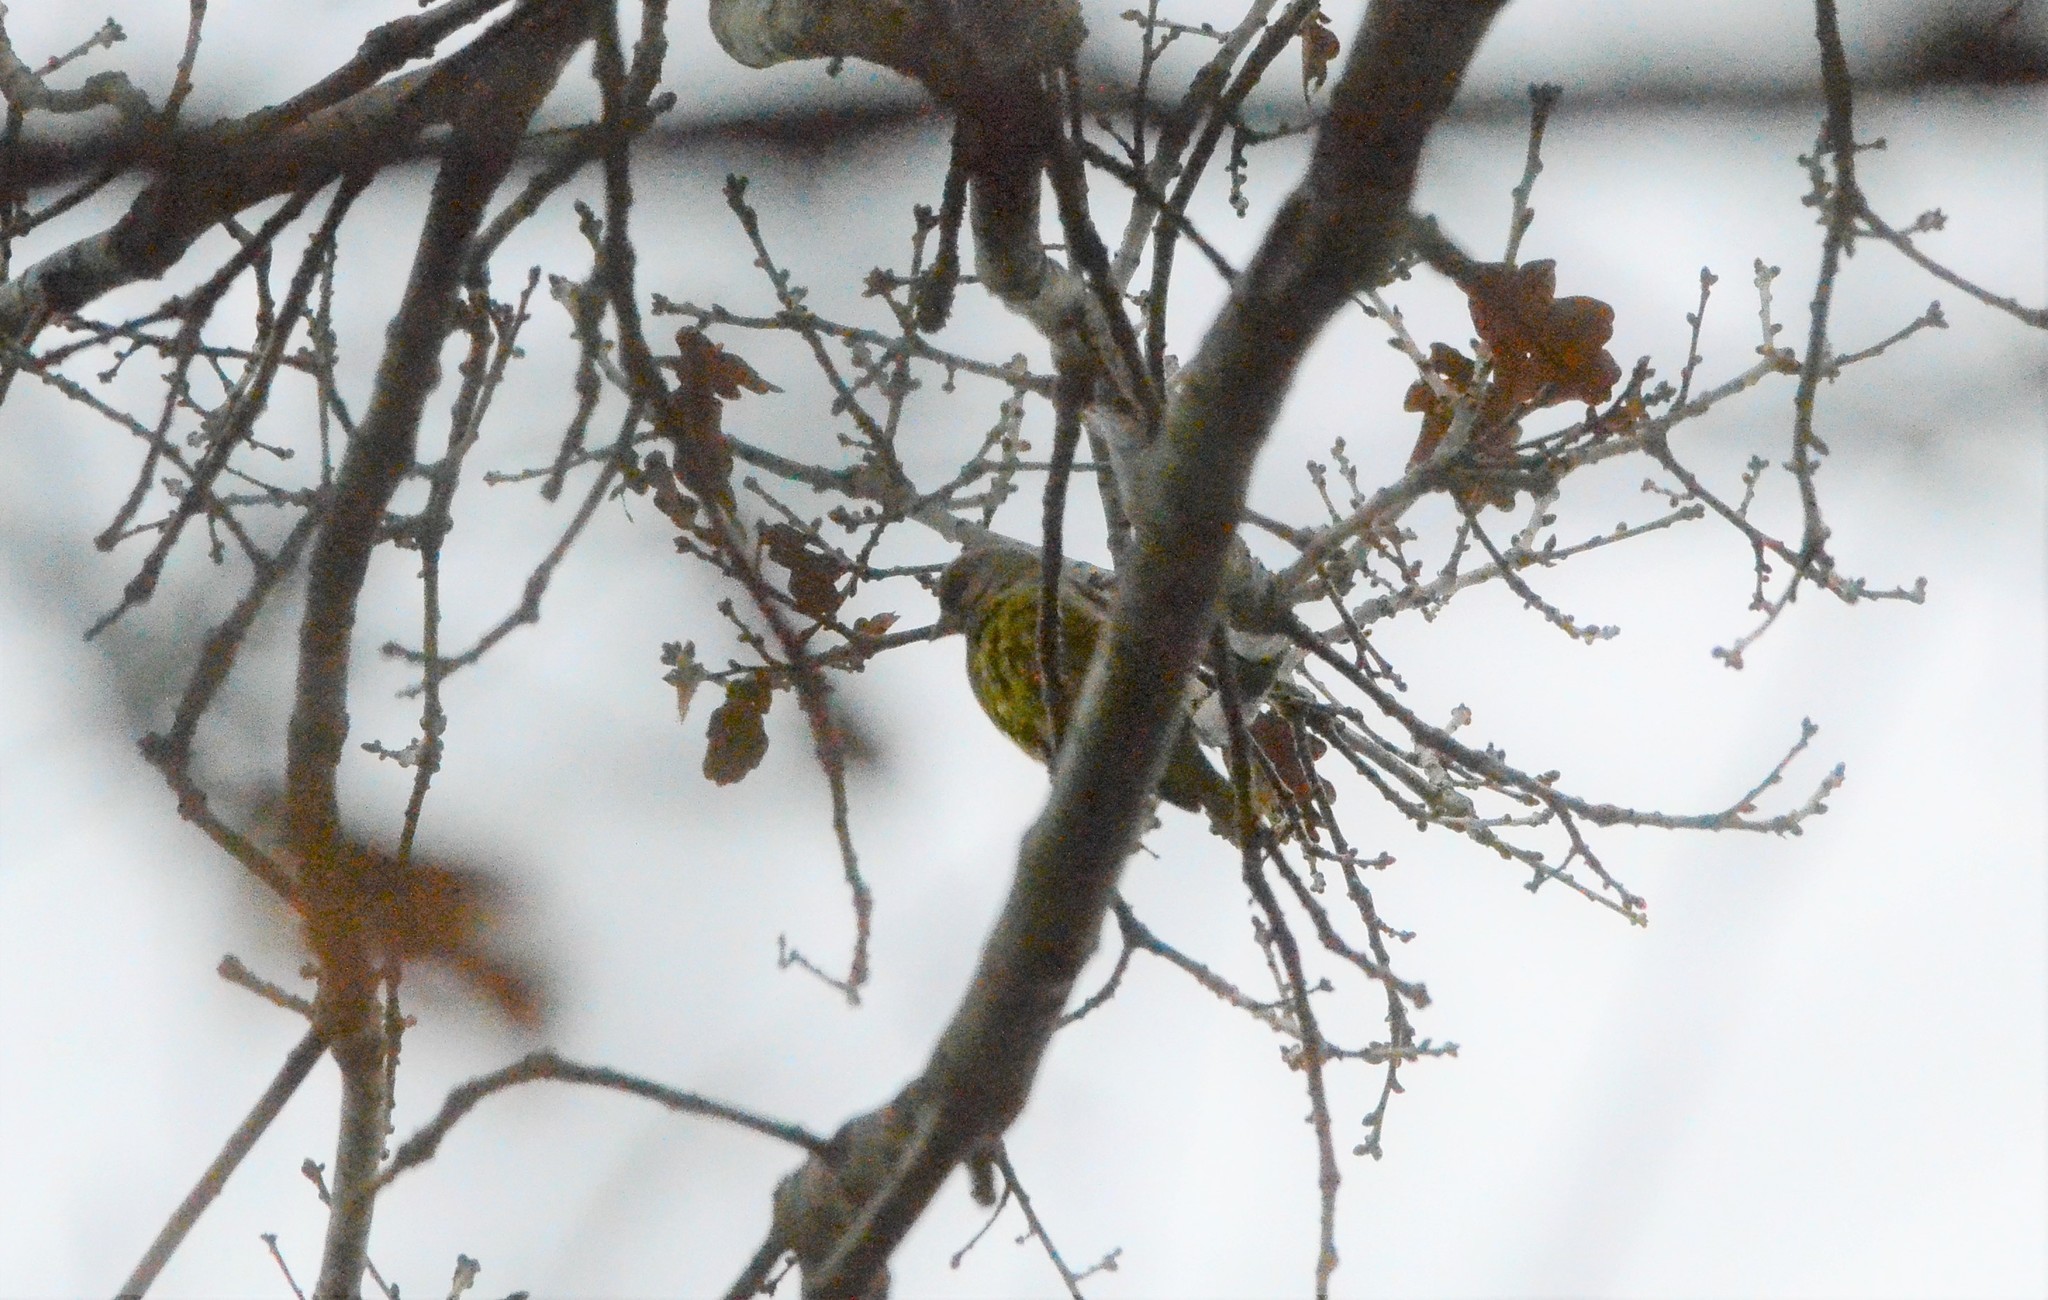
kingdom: Plantae
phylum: Tracheophyta
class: Liliopsida
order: Poales
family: Poaceae
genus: Chloris
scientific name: Chloris chloris
